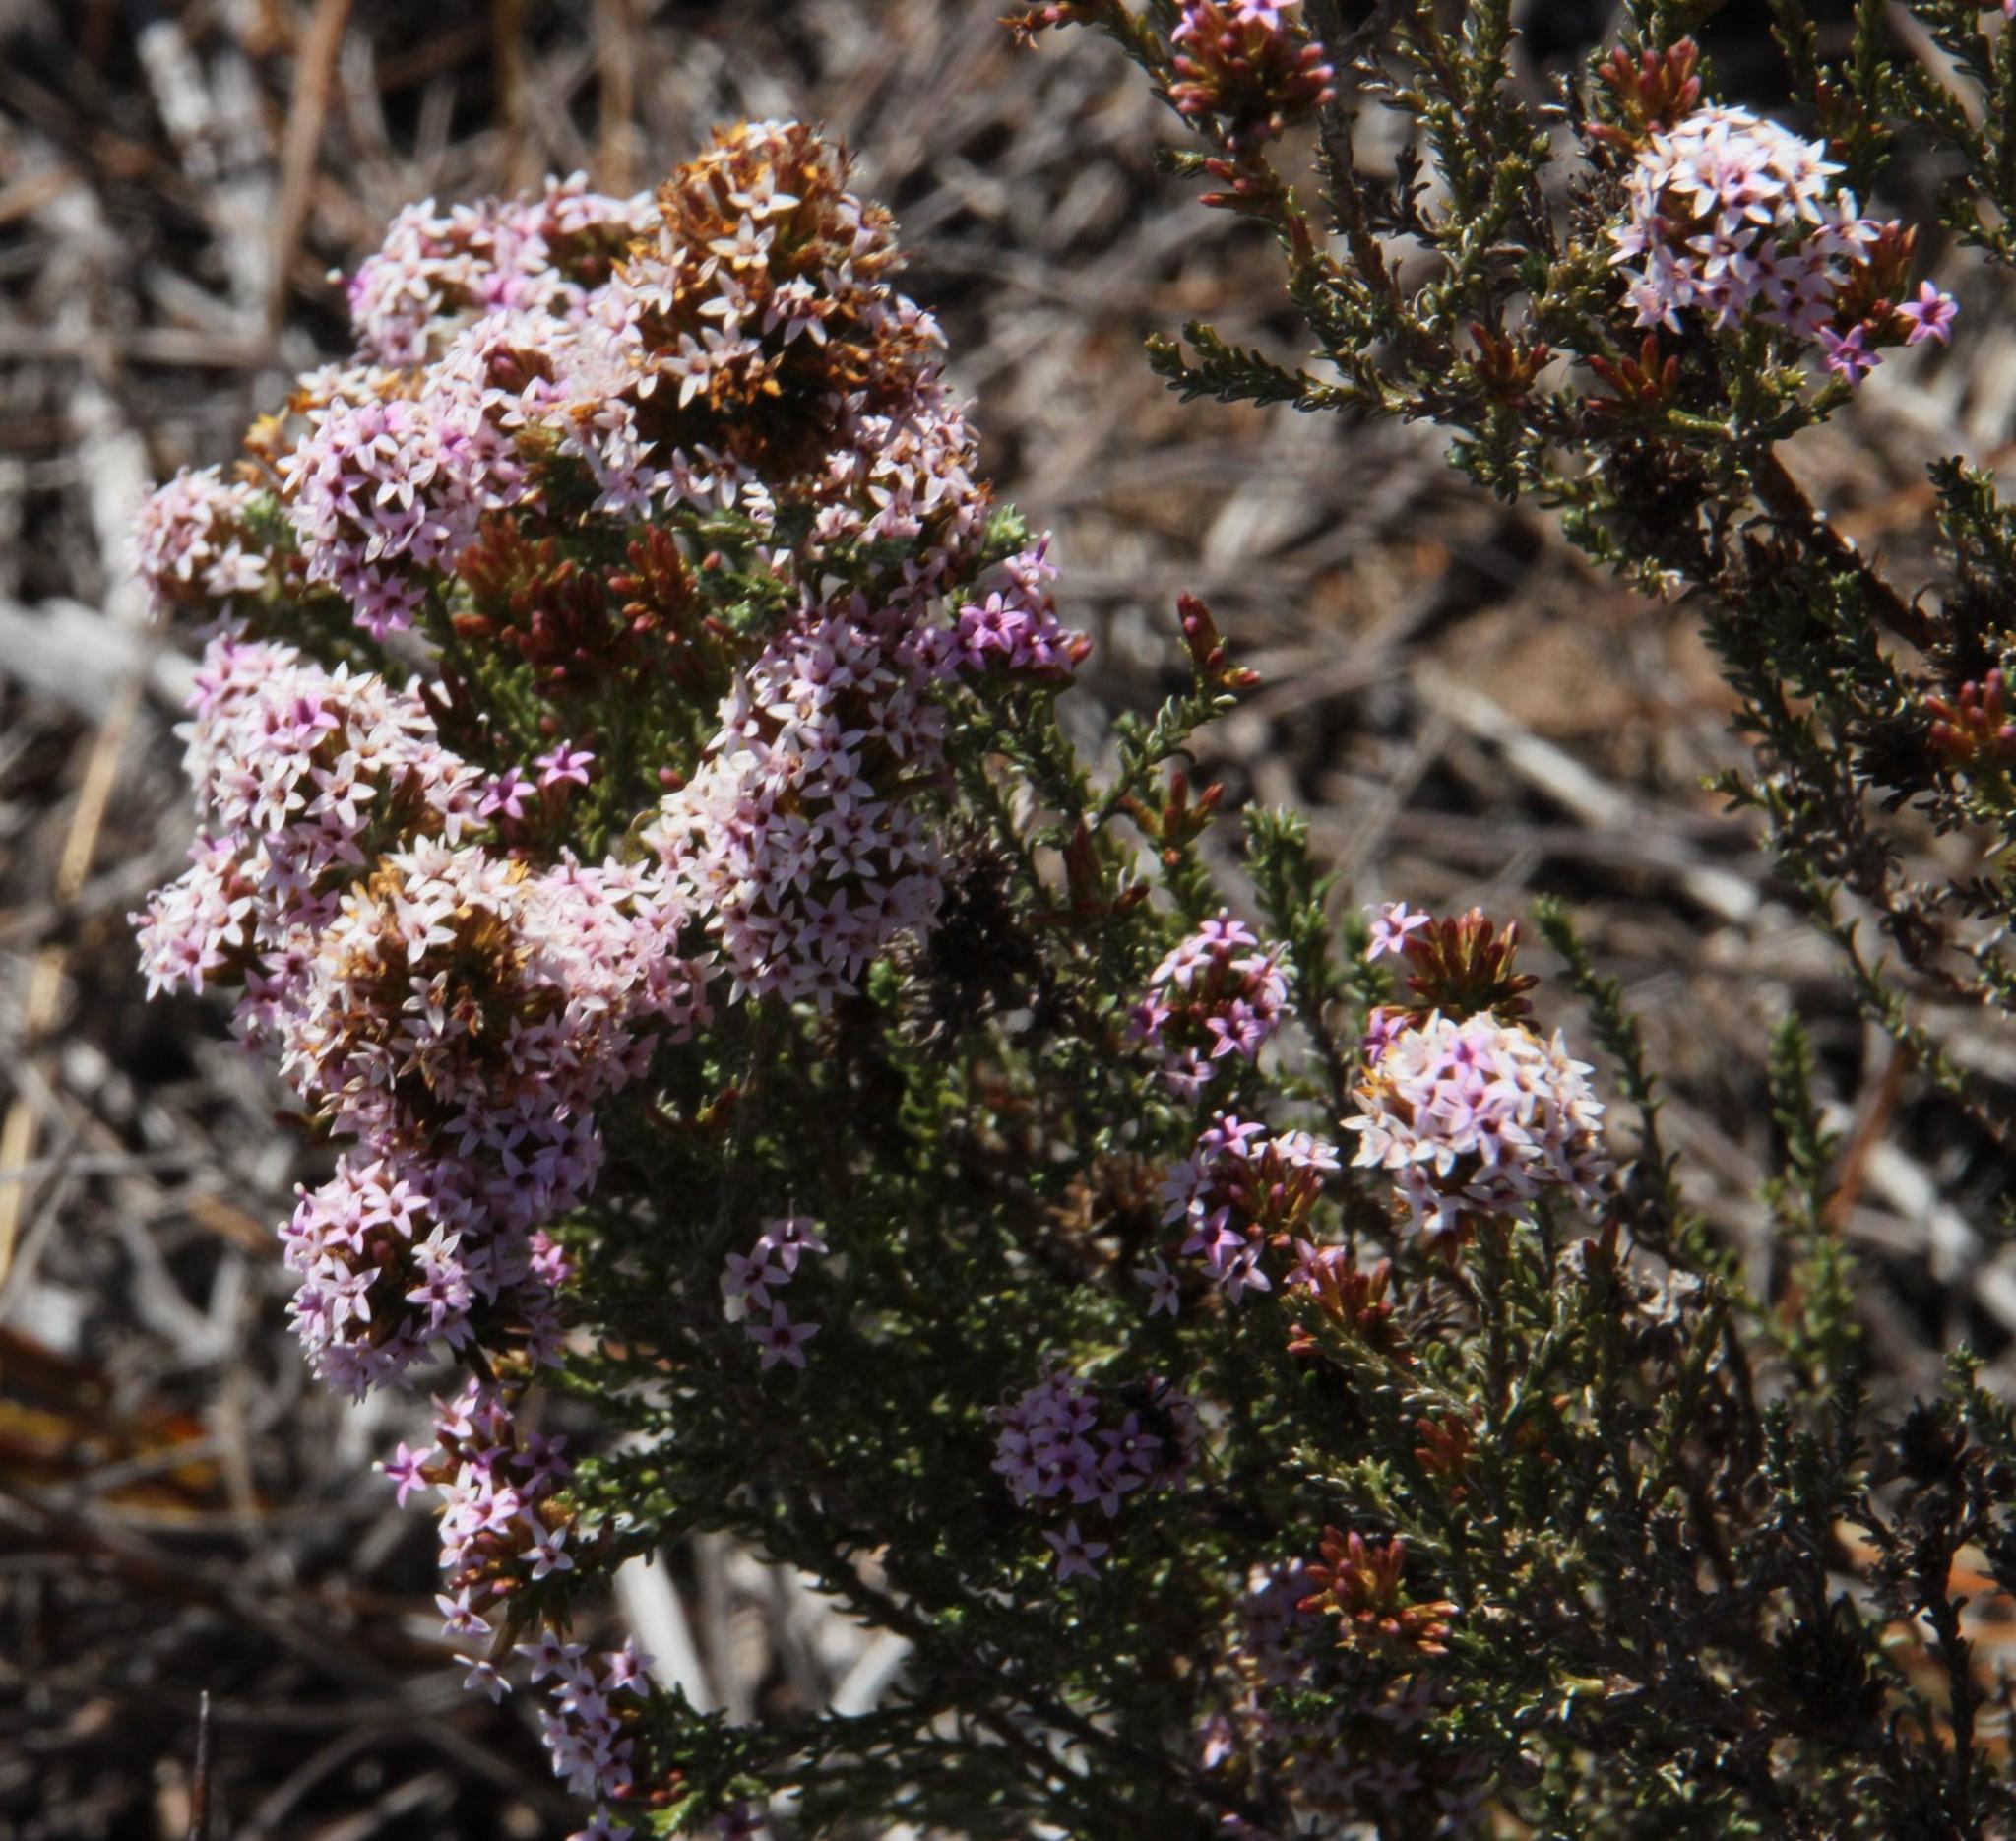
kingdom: Plantae
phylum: Tracheophyta
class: Magnoliopsida
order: Asterales
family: Asteraceae
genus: Stoebe
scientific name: Stoebe fusca
